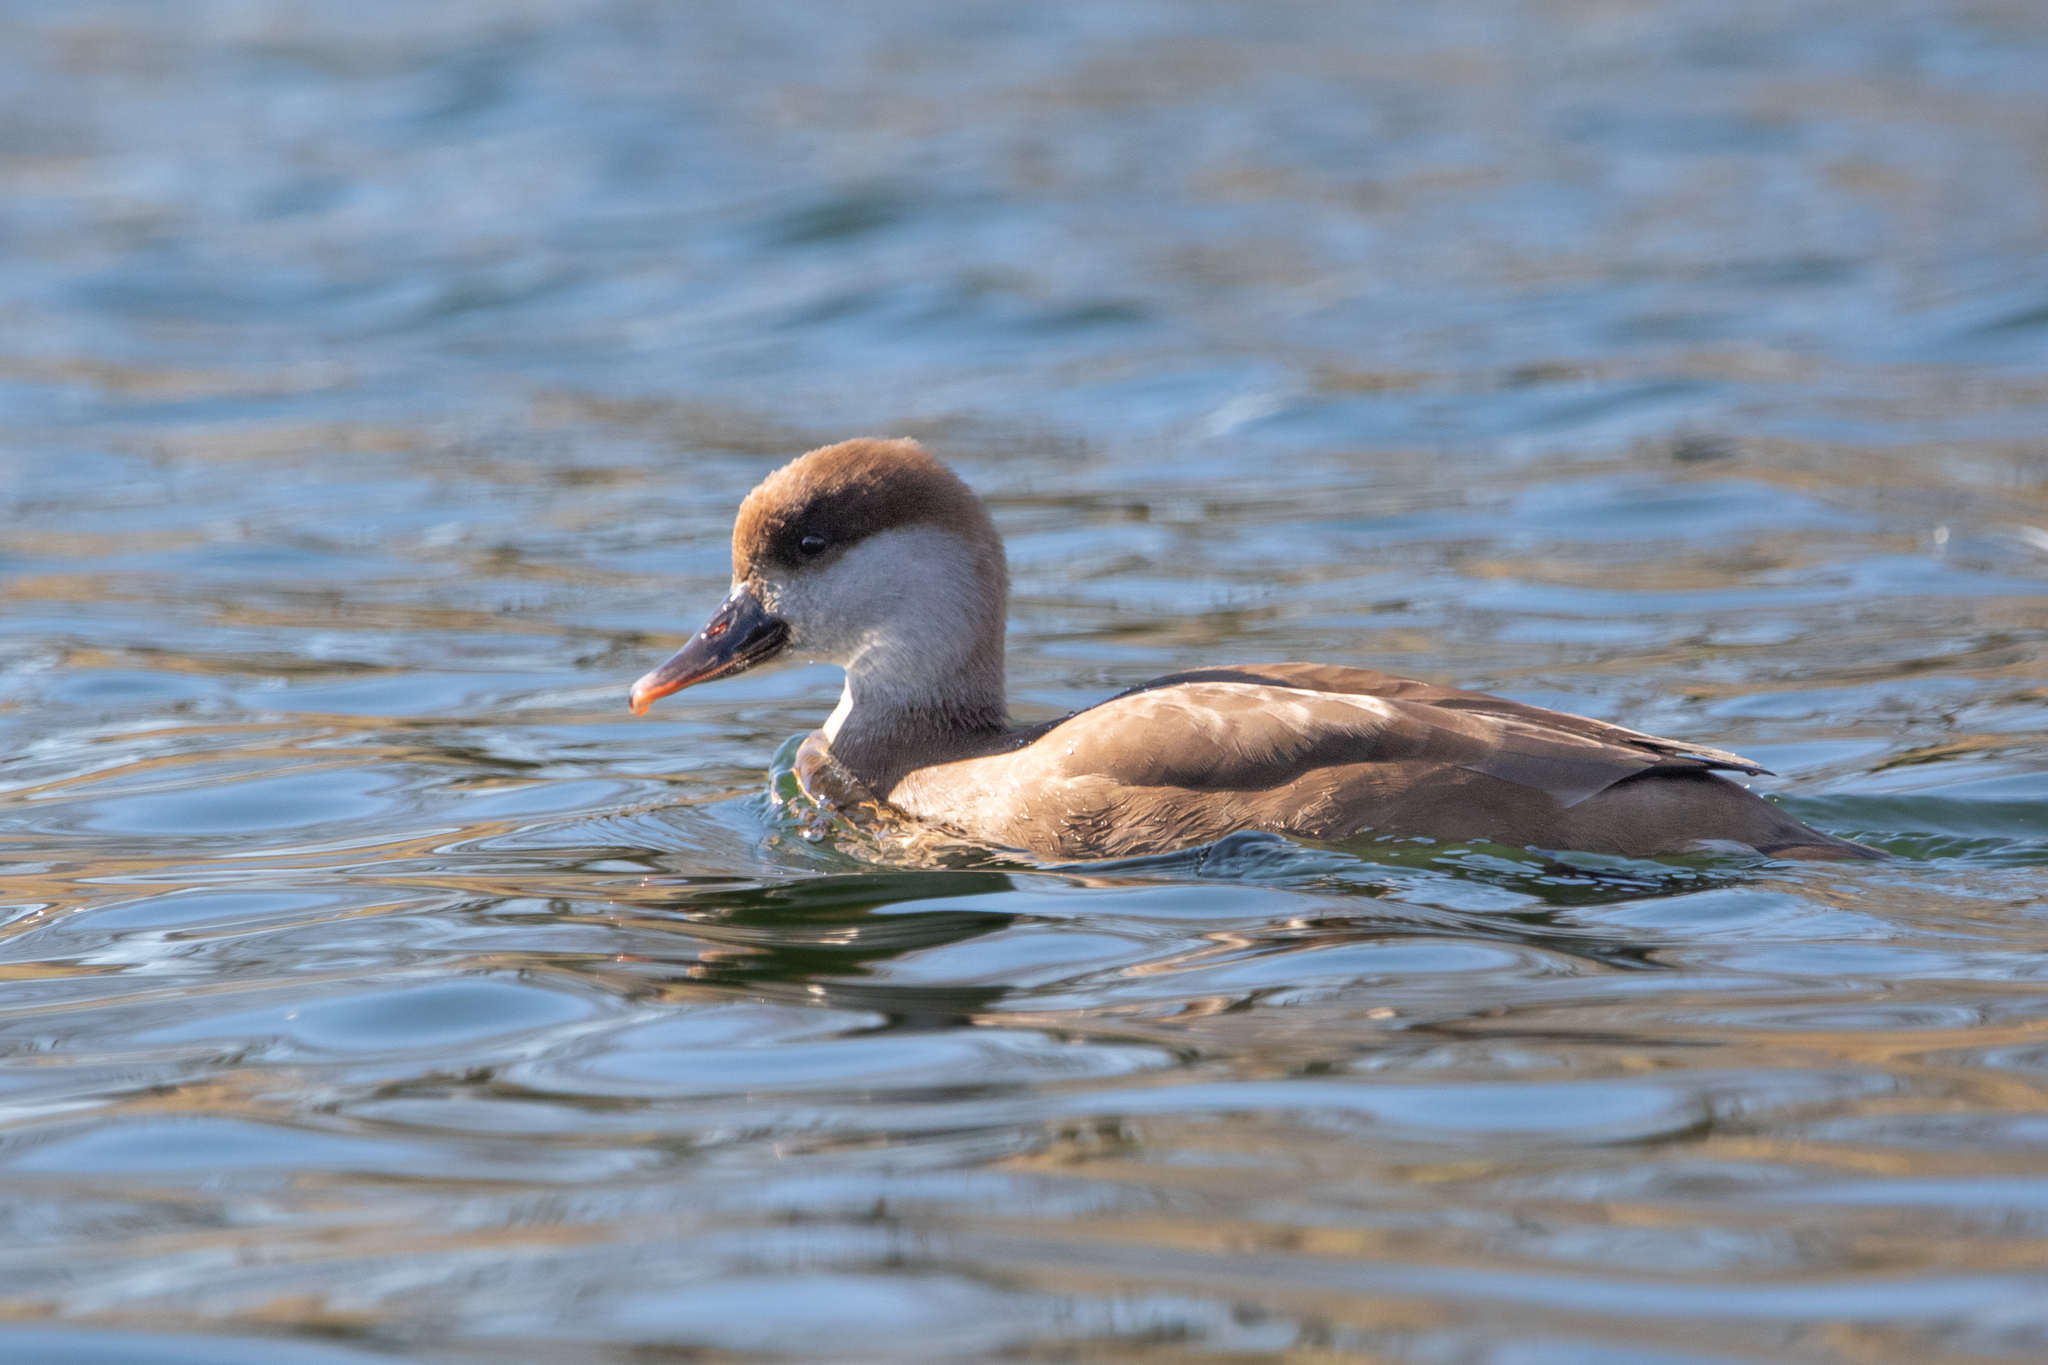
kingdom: Animalia
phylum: Chordata
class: Aves
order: Anseriformes
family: Anatidae
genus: Netta
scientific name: Netta rufina
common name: Red-crested pochard
